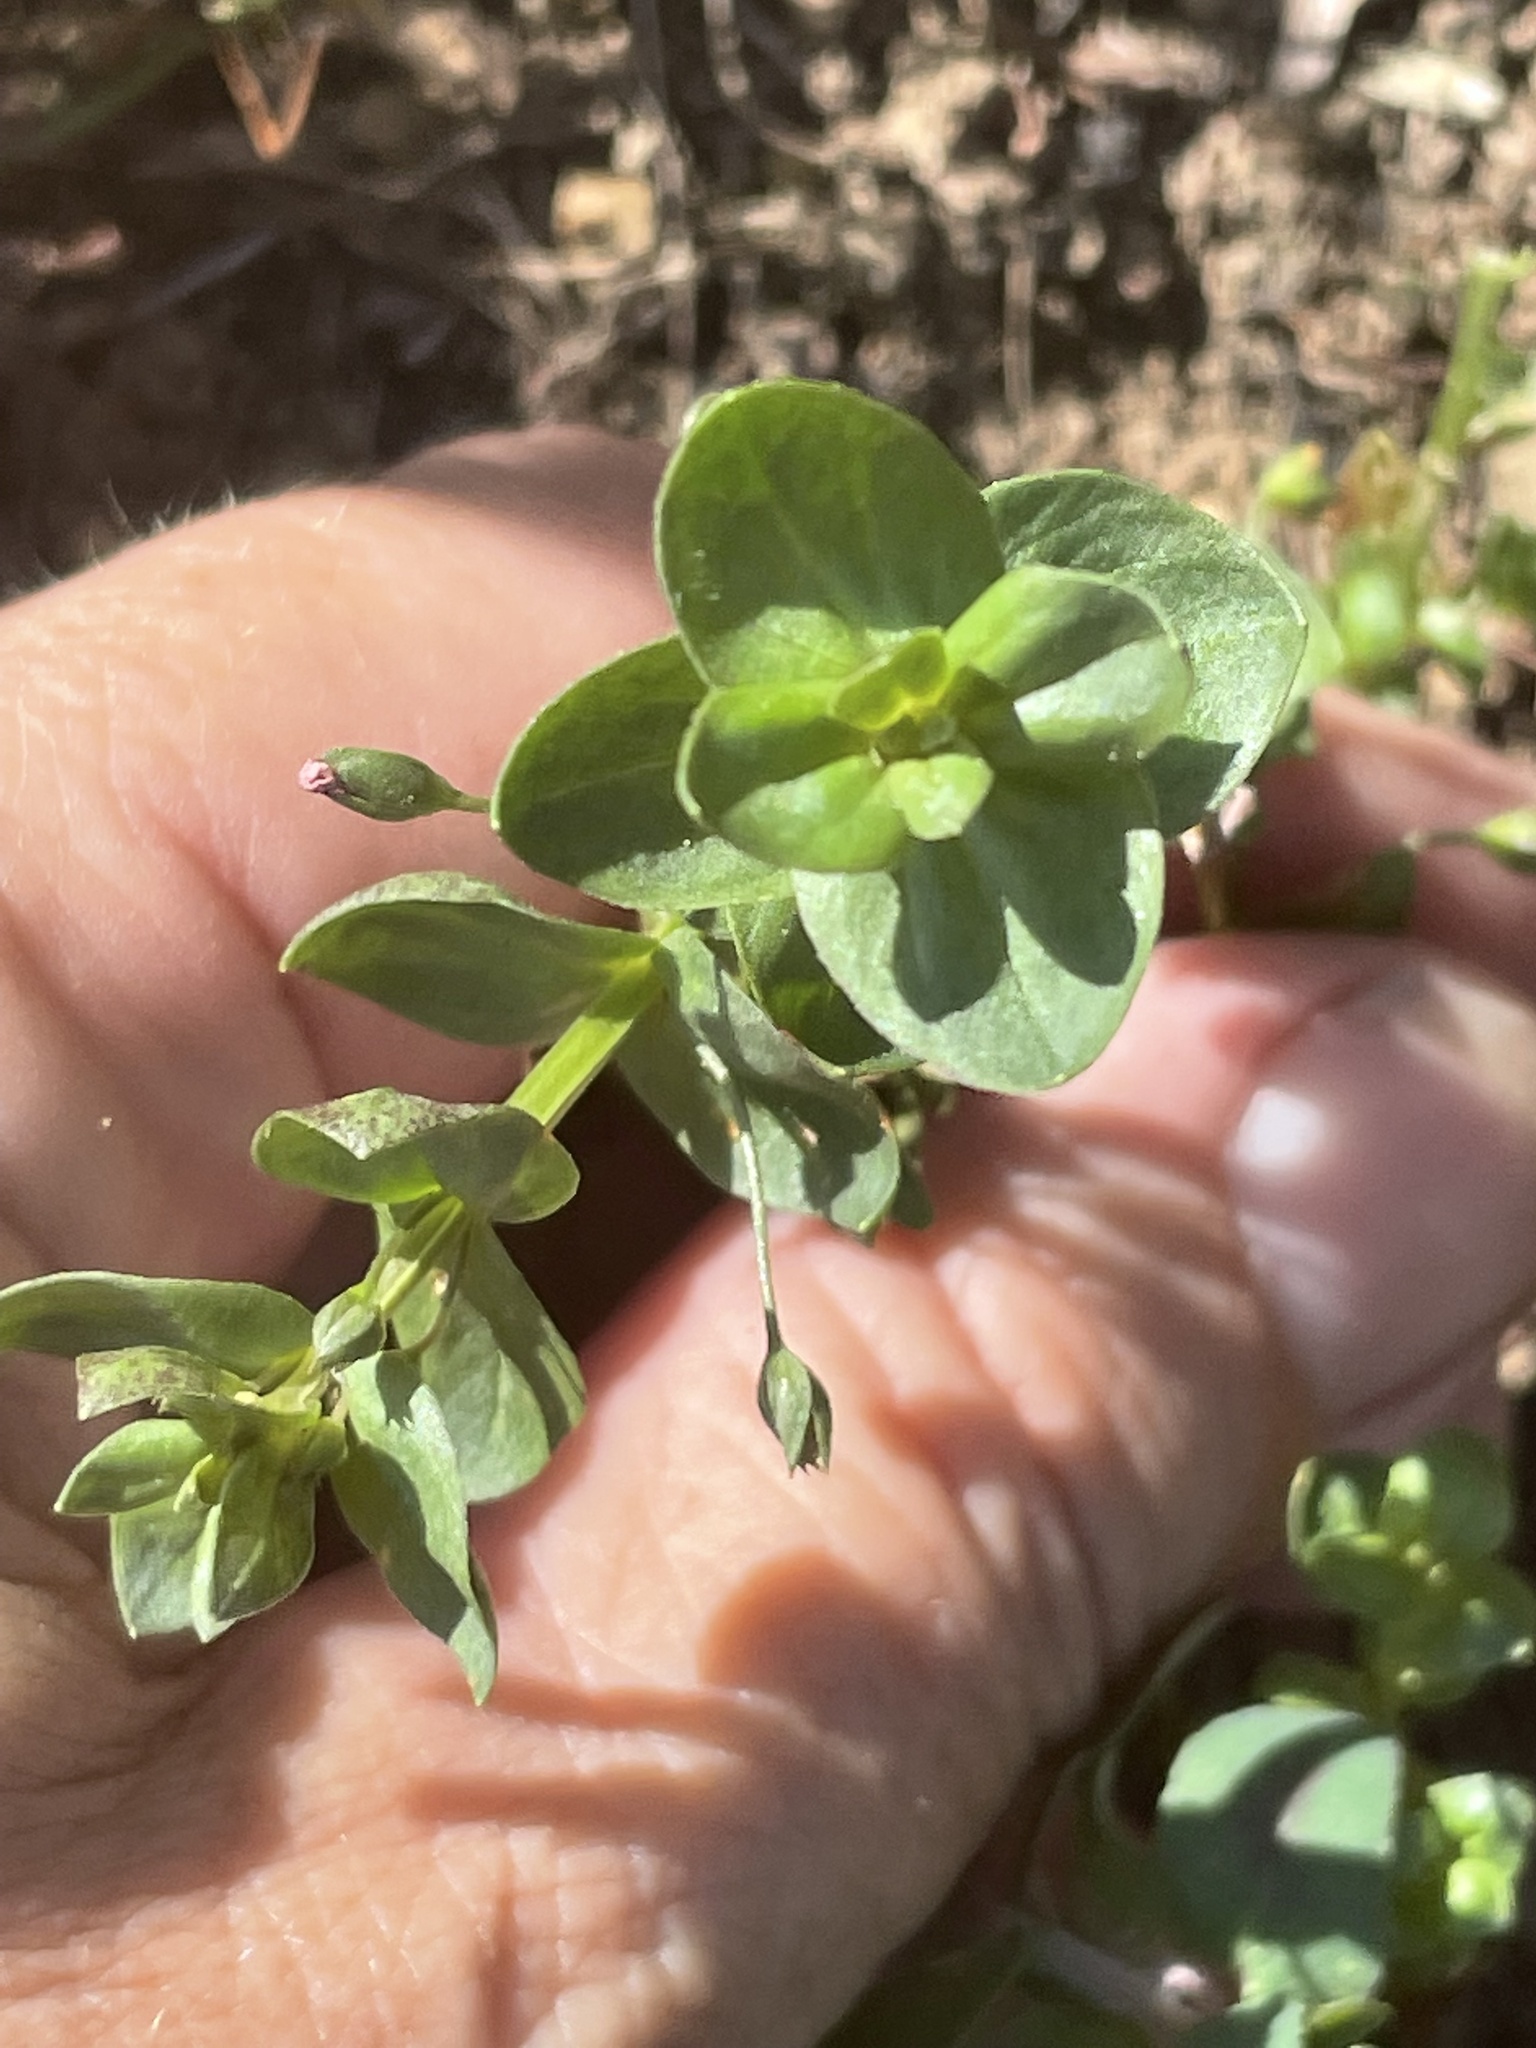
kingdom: Plantae
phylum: Tracheophyta
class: Magnoliopsida
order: Ericales
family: Primulaceae
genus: Lysimachia
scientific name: Lysimachia arvensis
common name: Scarlet pimpernel
